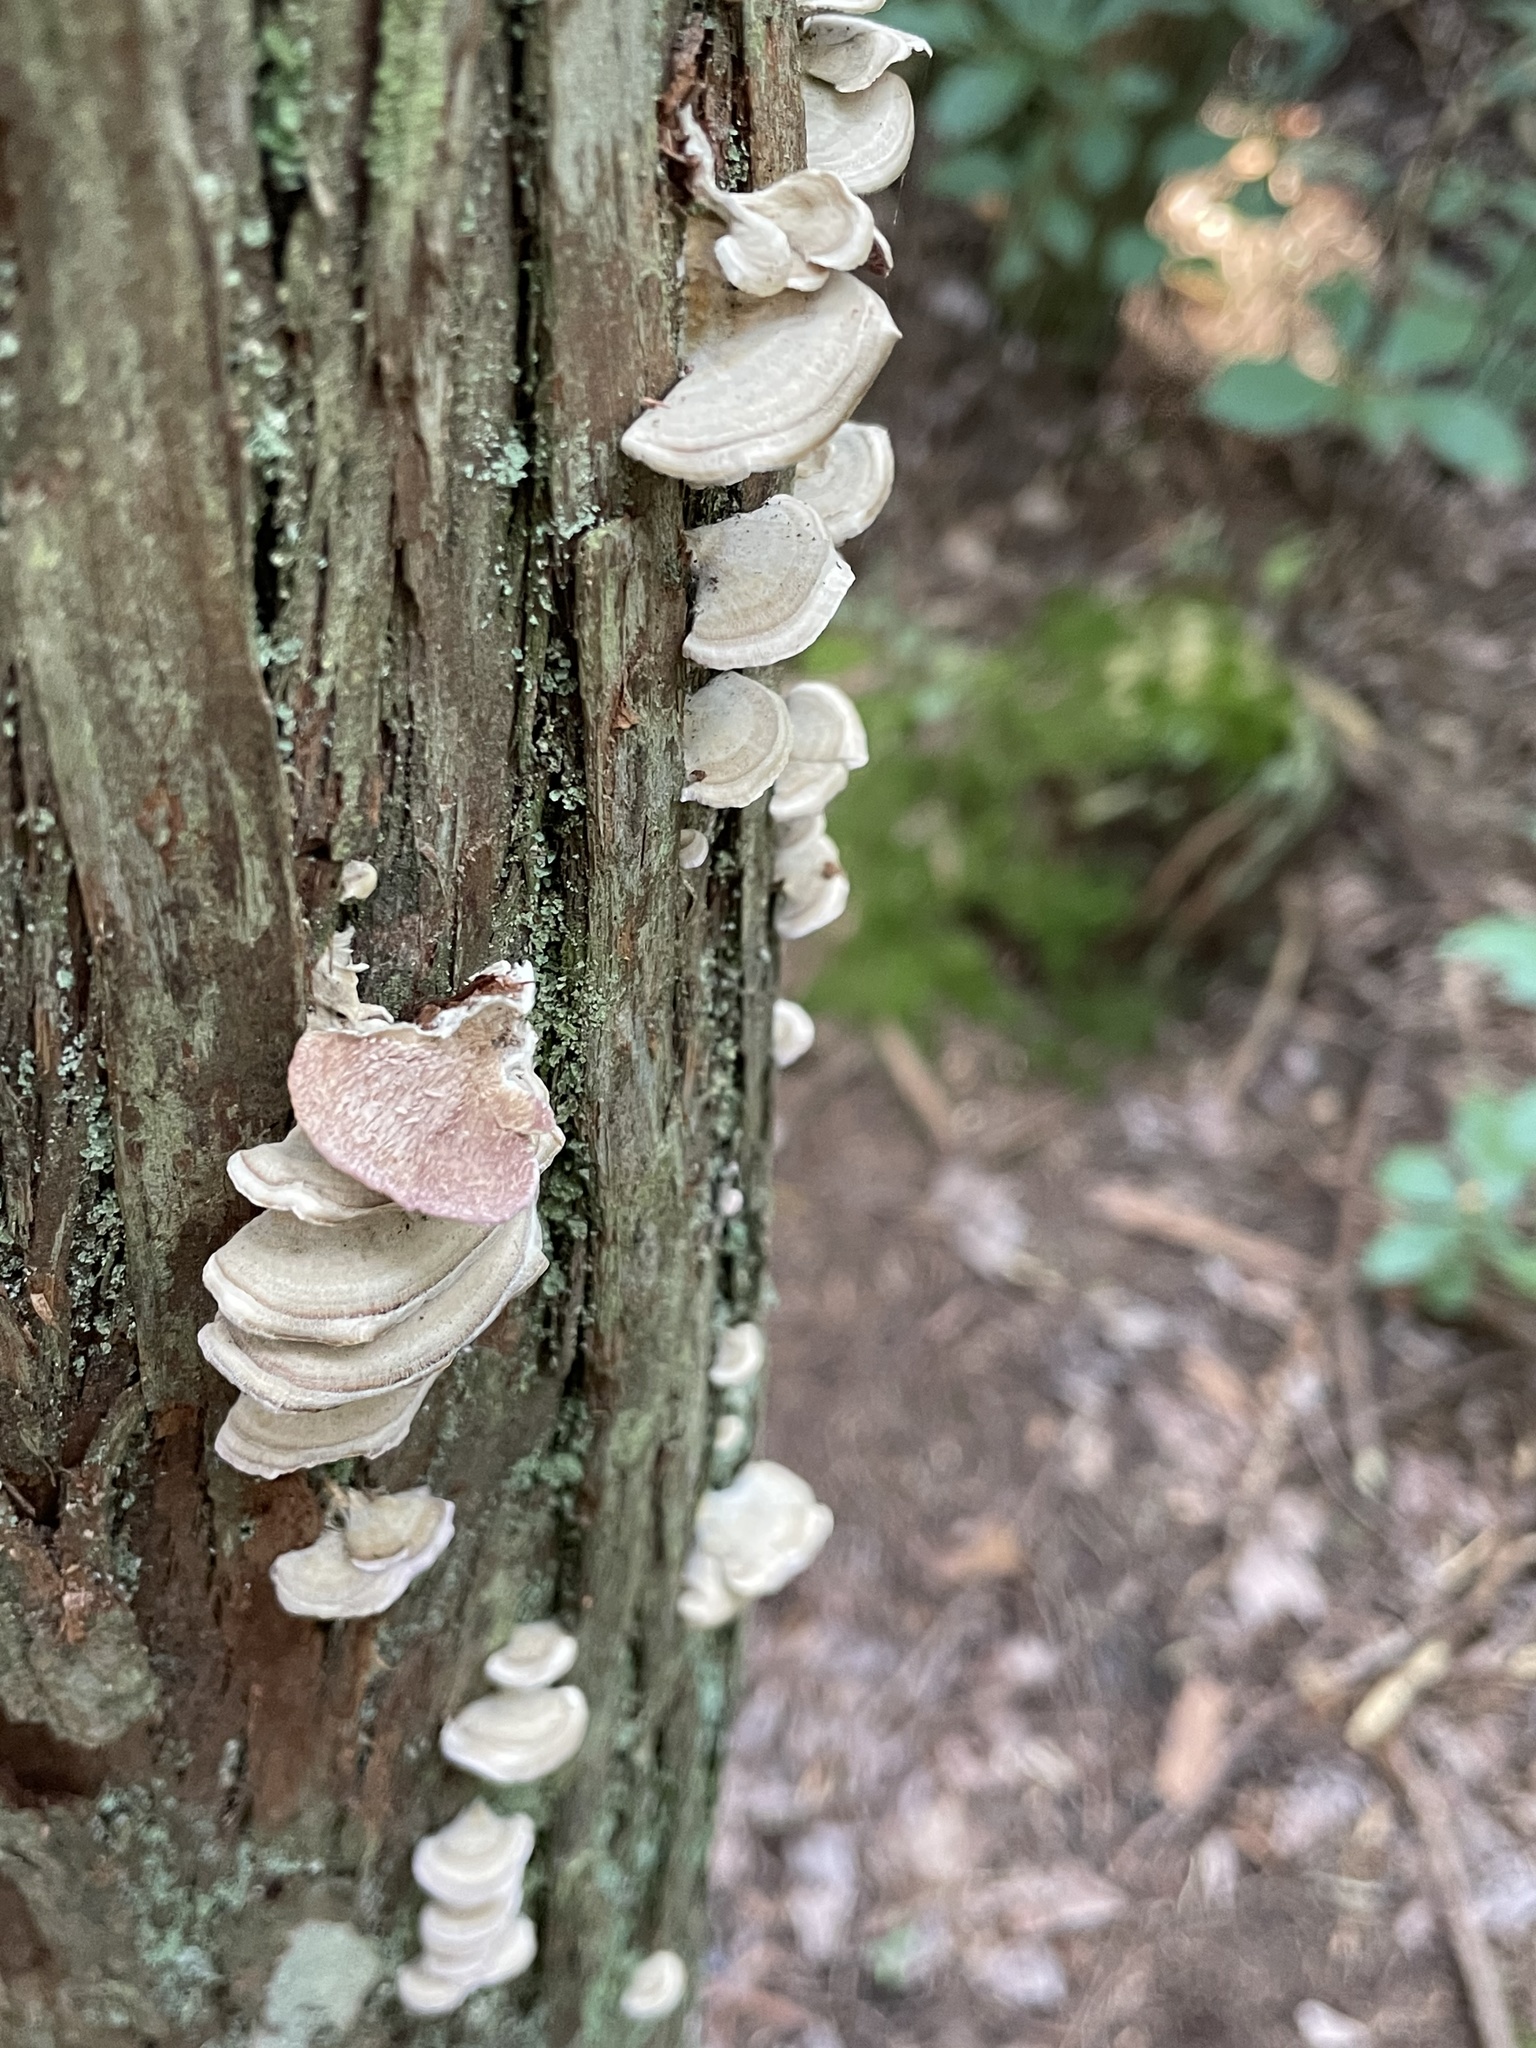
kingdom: Fungi
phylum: Basidiomycota
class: Agaricomycetes
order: Hymenochaetales
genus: Trichaptum
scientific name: Trichaptum abietinum
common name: Purplepore bracket
